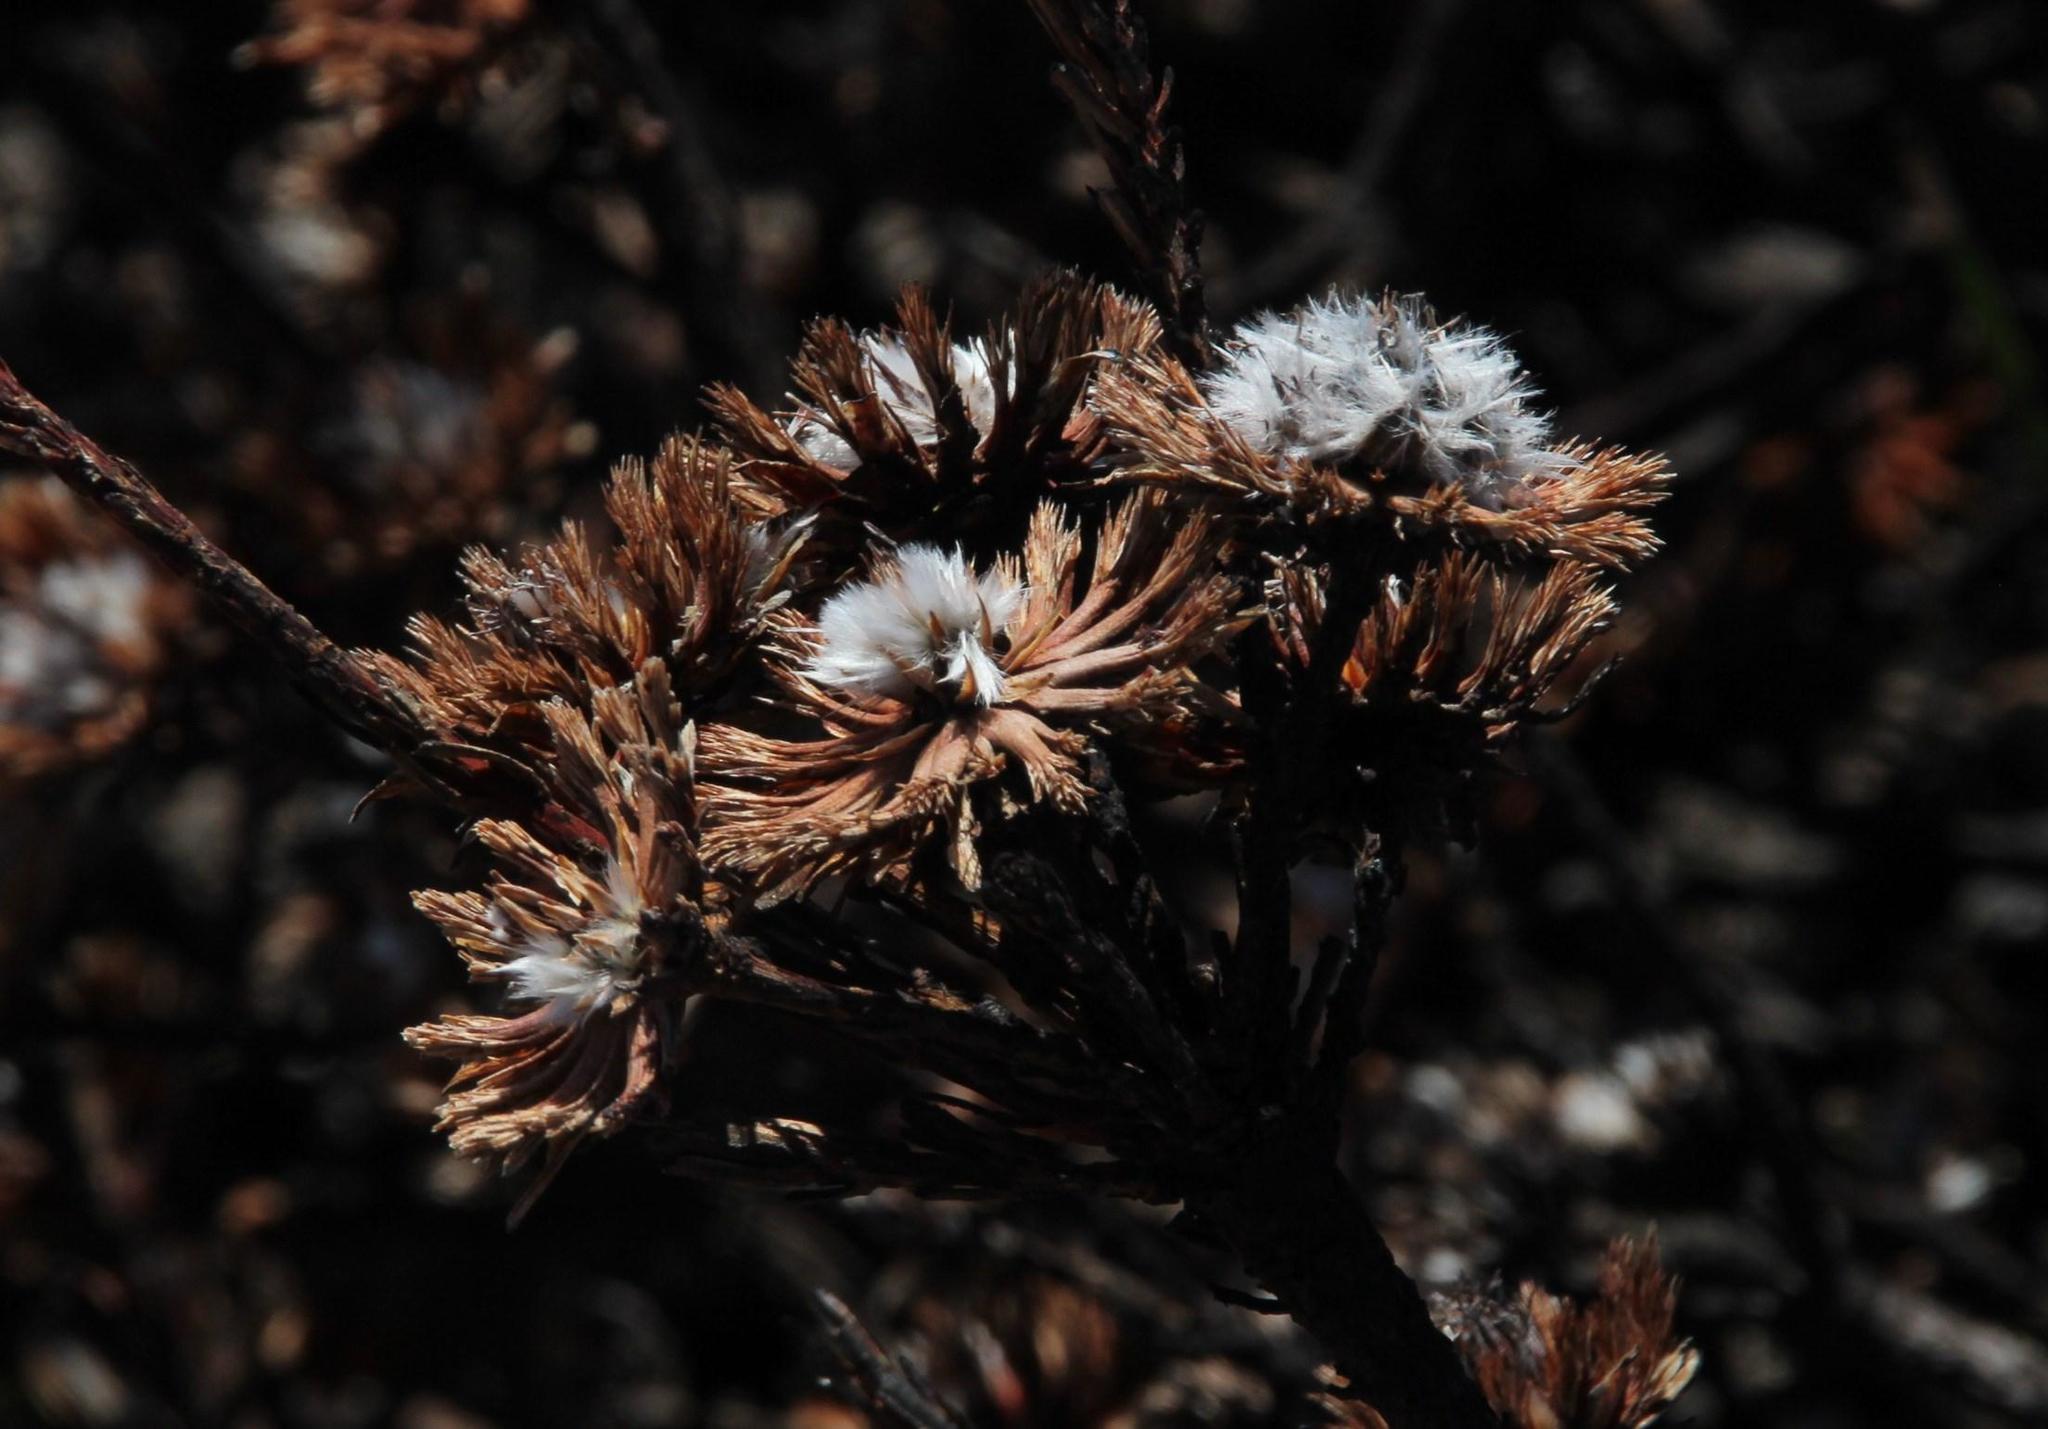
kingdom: Plantae
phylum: Tracheophyta
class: Magnoliopsida
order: Proteales
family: Proteaceae
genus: Aulax
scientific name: Aulax umbellata
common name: Broad-leaf featherbush
